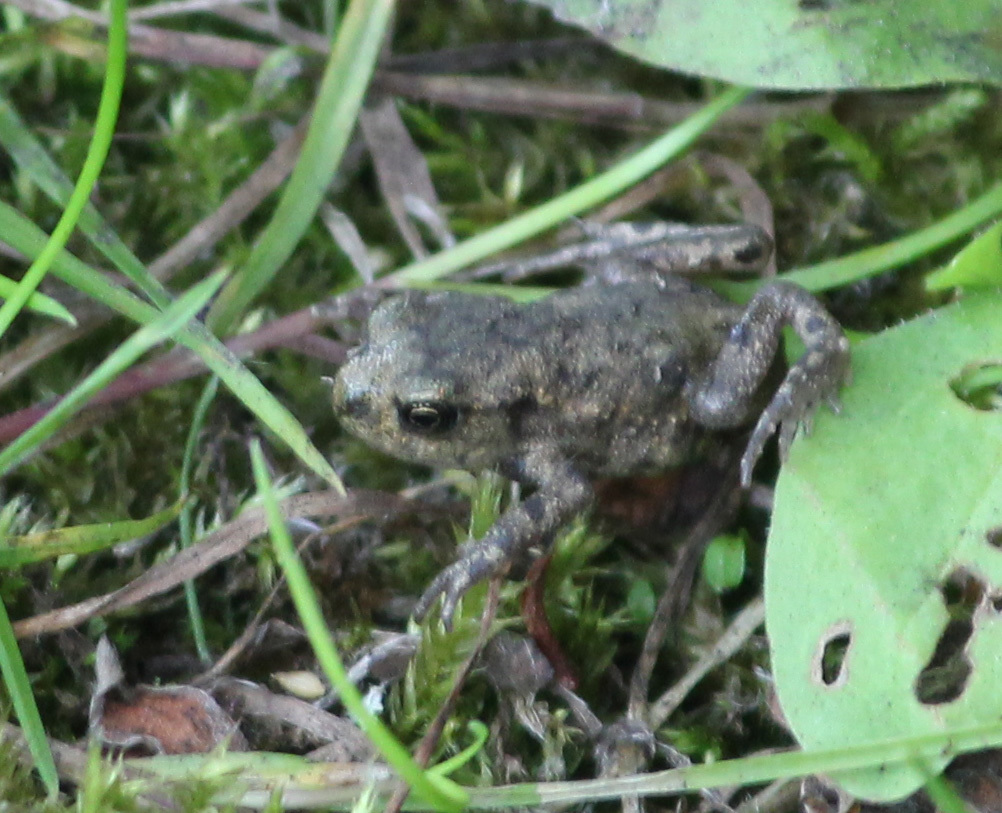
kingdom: Animalia
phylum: Chordata
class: Amphibia
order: Anura
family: Bufonidae
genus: Bufo
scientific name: Bufo bufo
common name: Common toad
